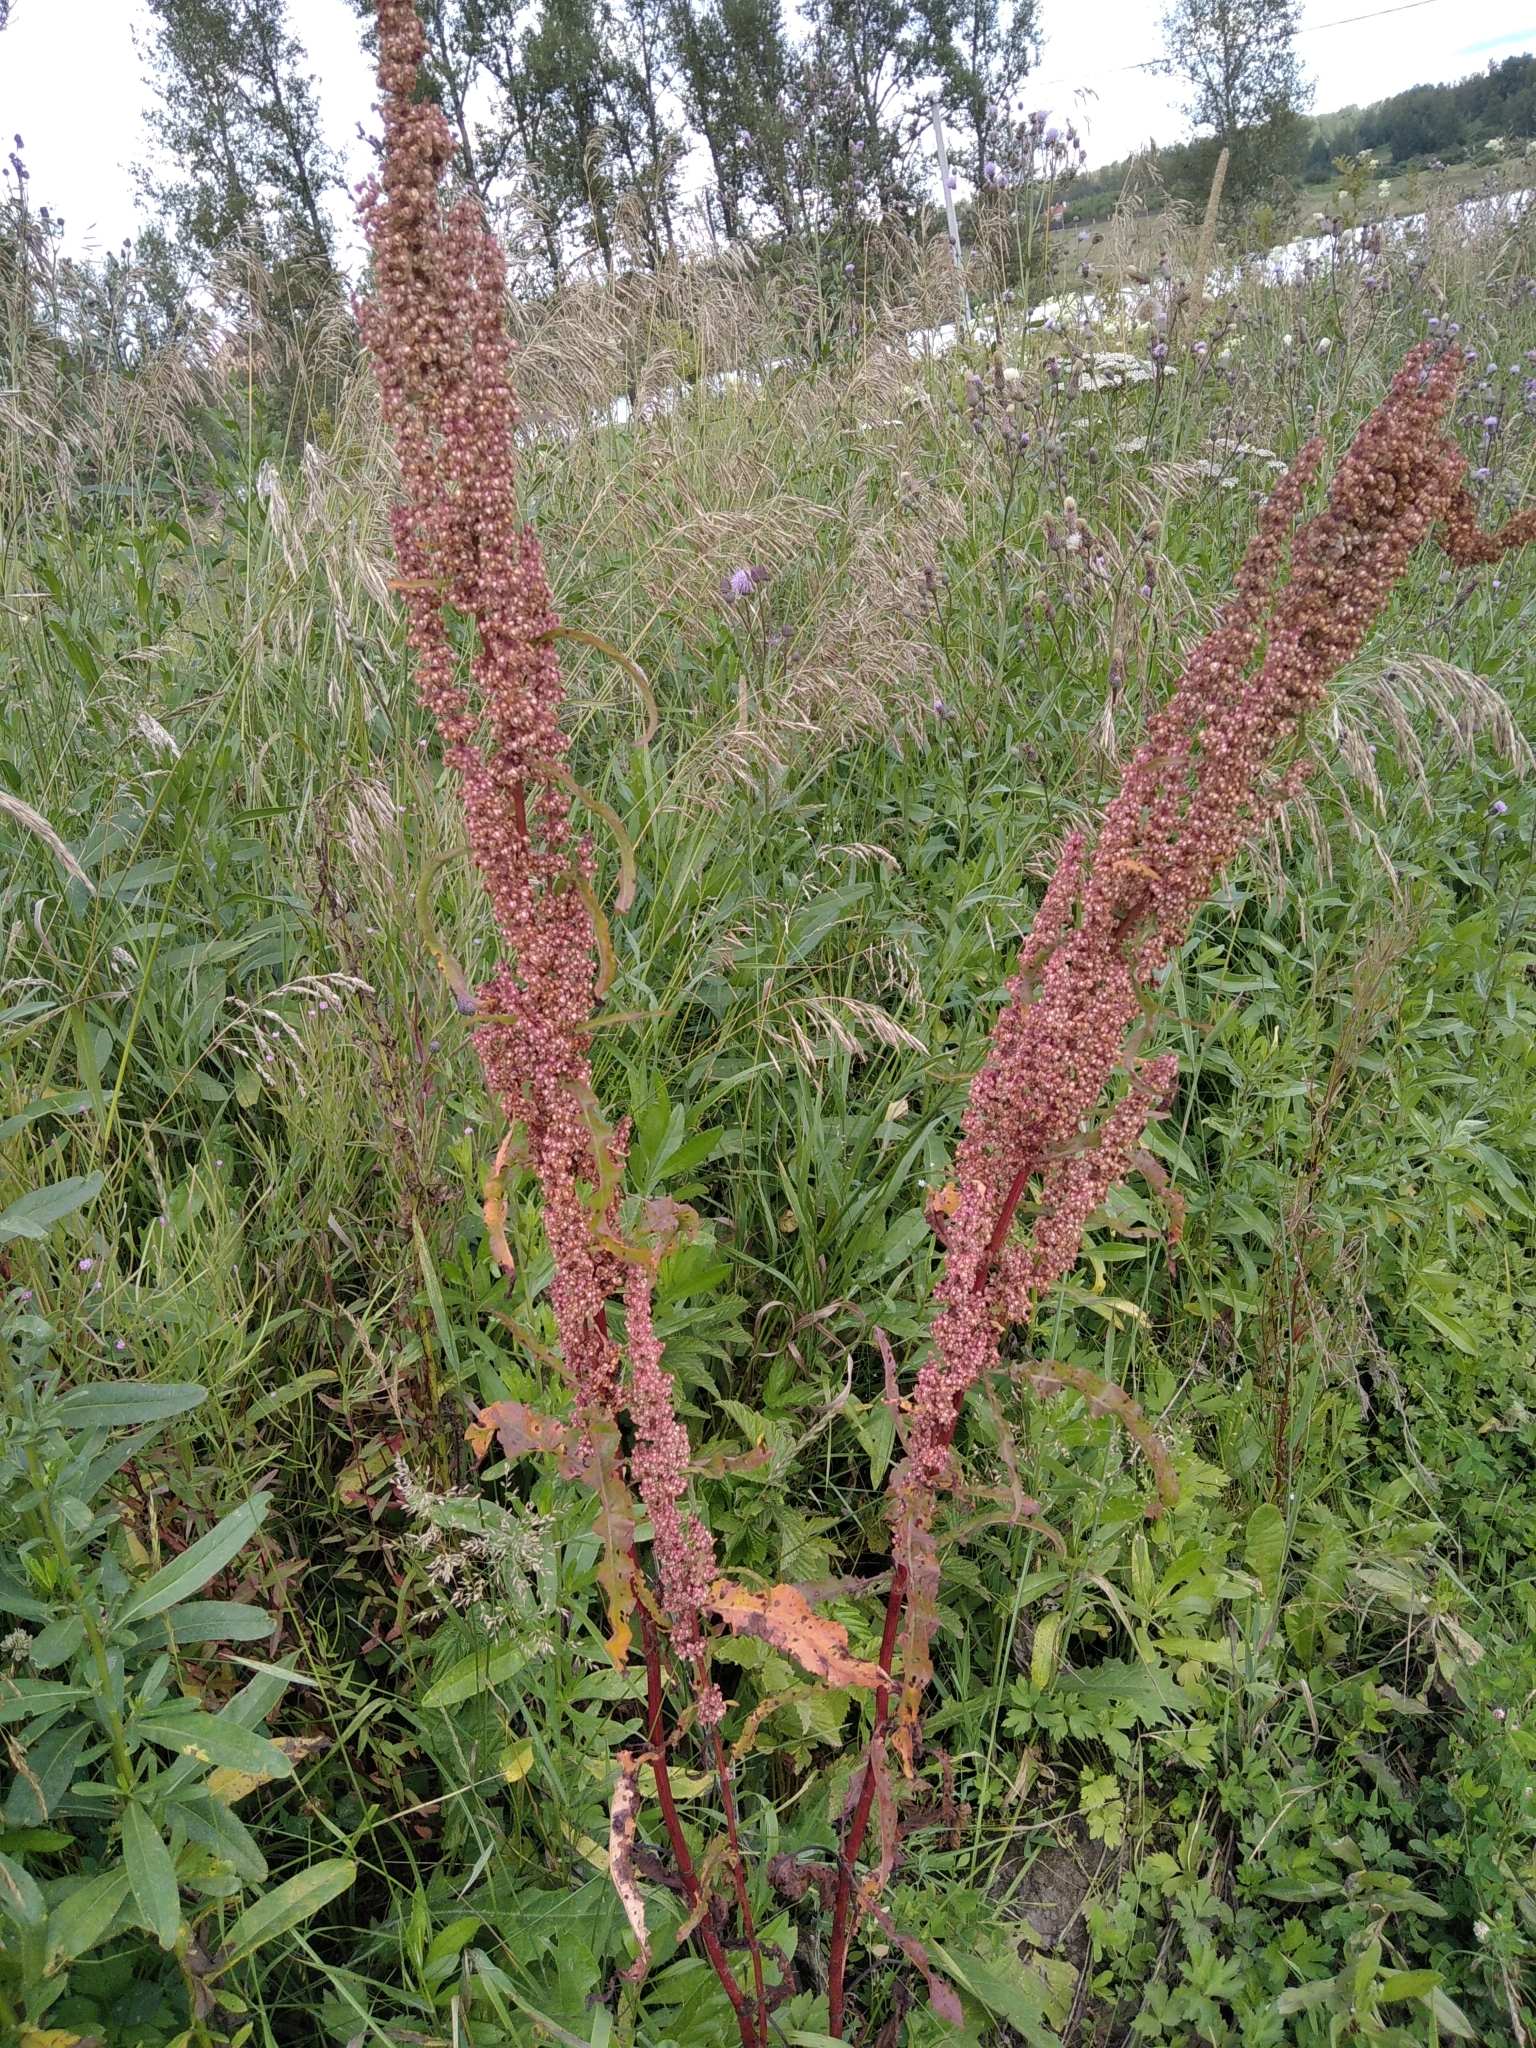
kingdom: Plantae
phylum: Tracheophyta
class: Magnoliopsida
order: Caryophyllales
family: Polygonaceae
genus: Rumex
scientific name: Rumex crispus
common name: Curled dock
